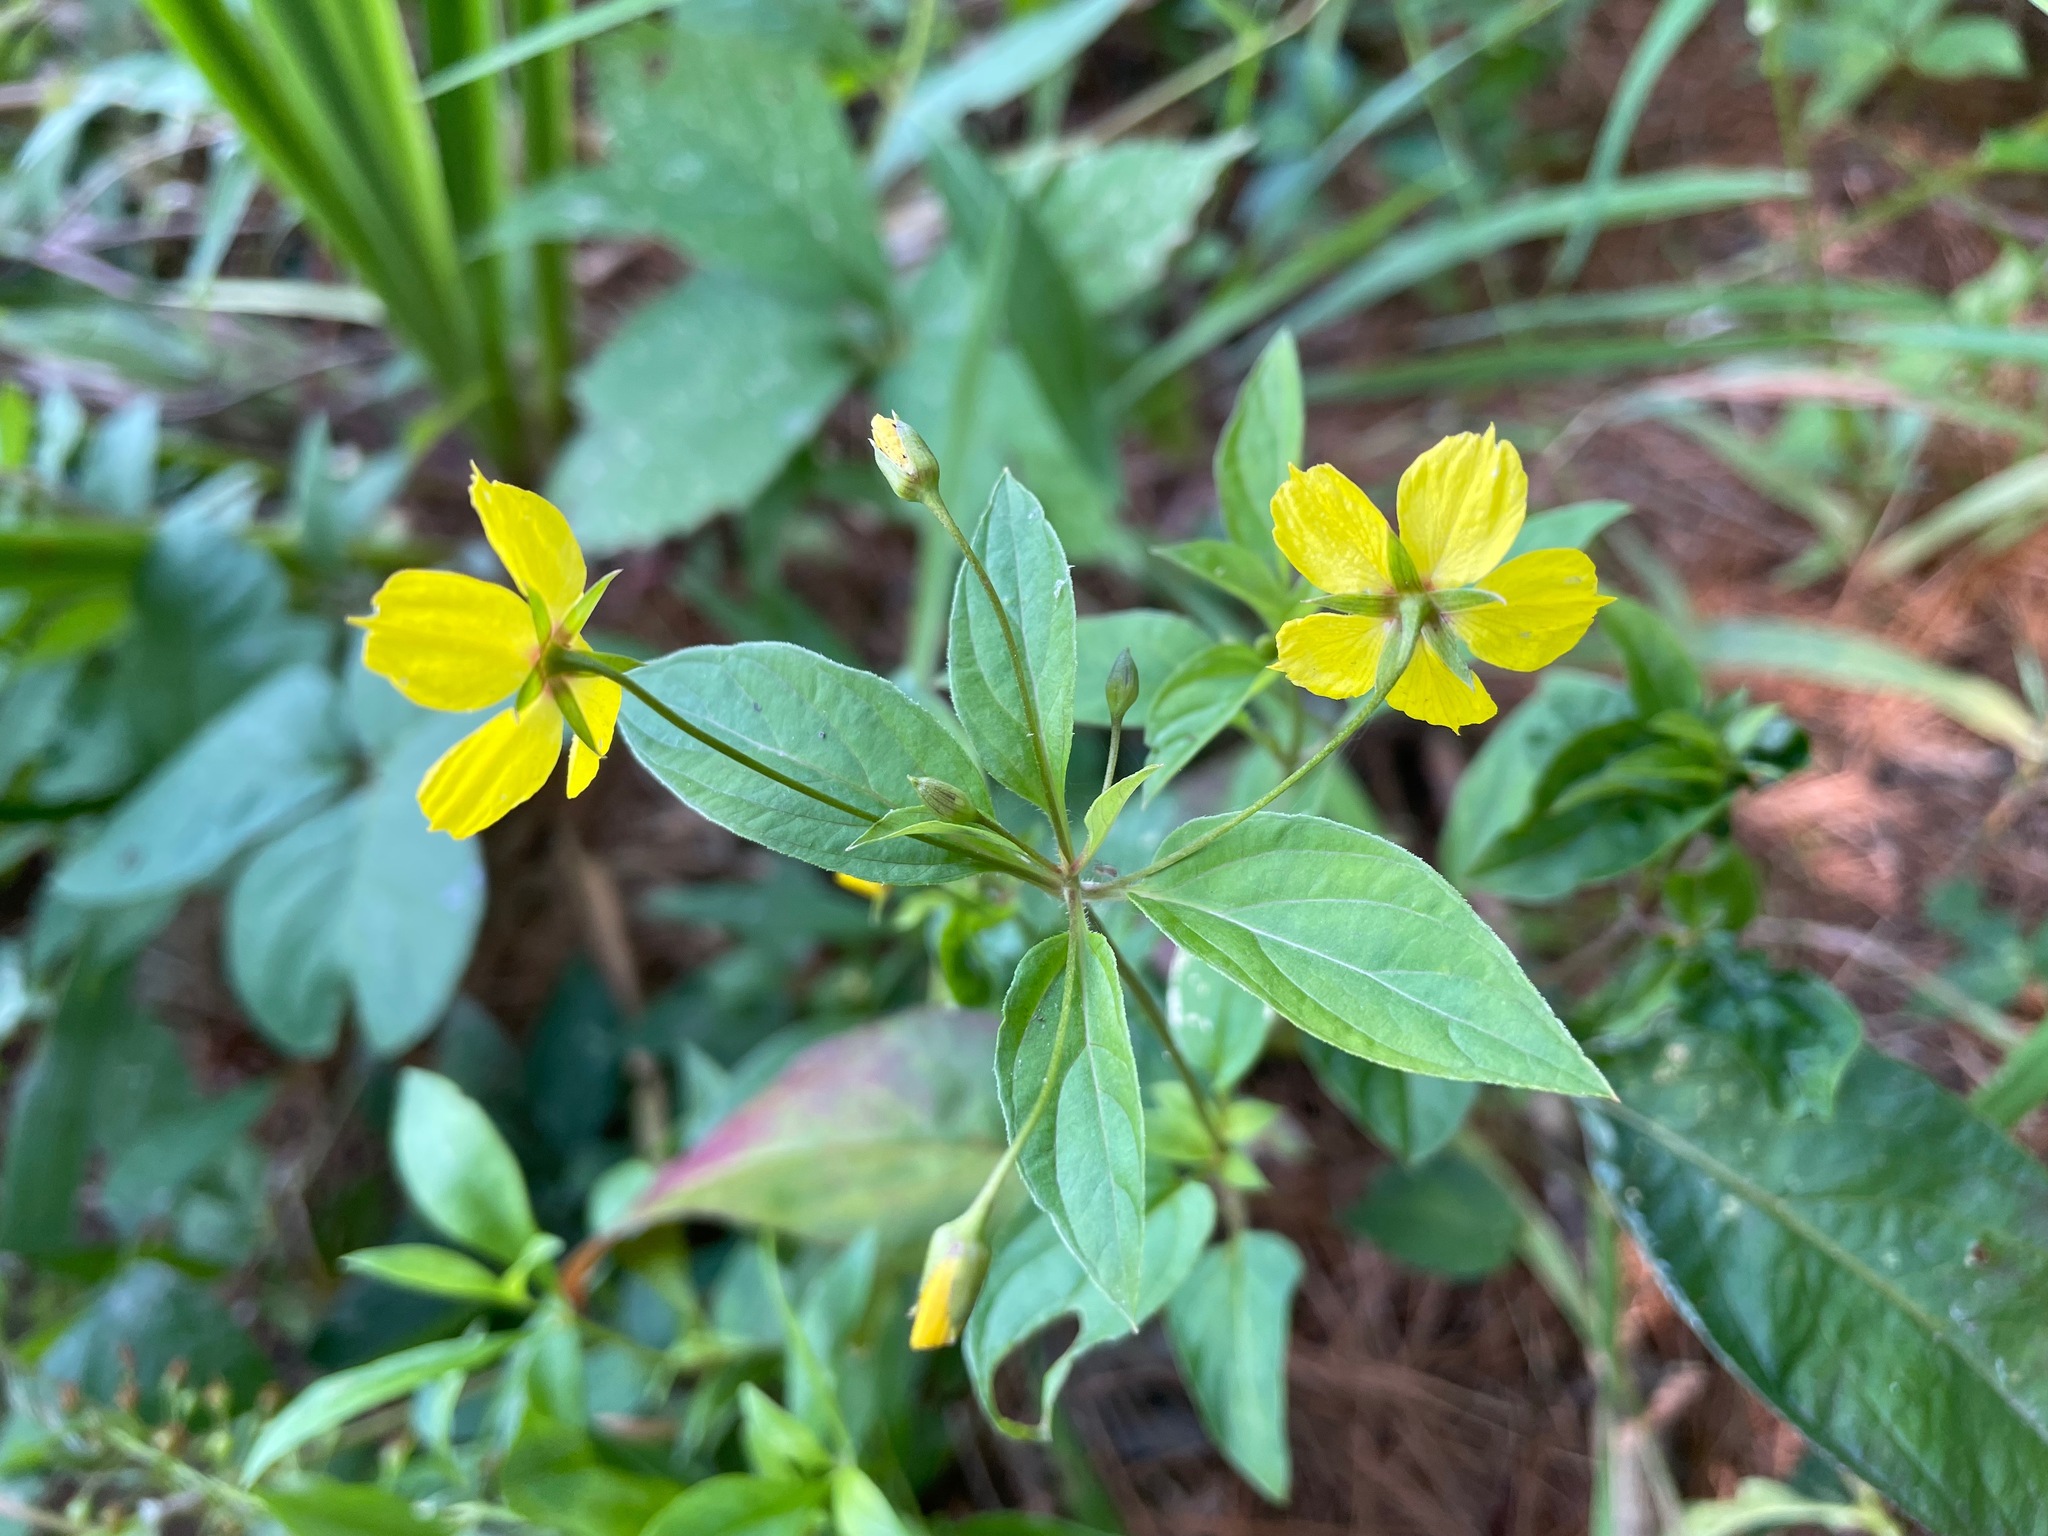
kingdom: Plantae
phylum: Tracheophyta
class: Magnoliopsida
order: Ericales
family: Primulaceae
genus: Lysimachia
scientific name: Lysimachia ciliata
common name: Fringed loosestrife
